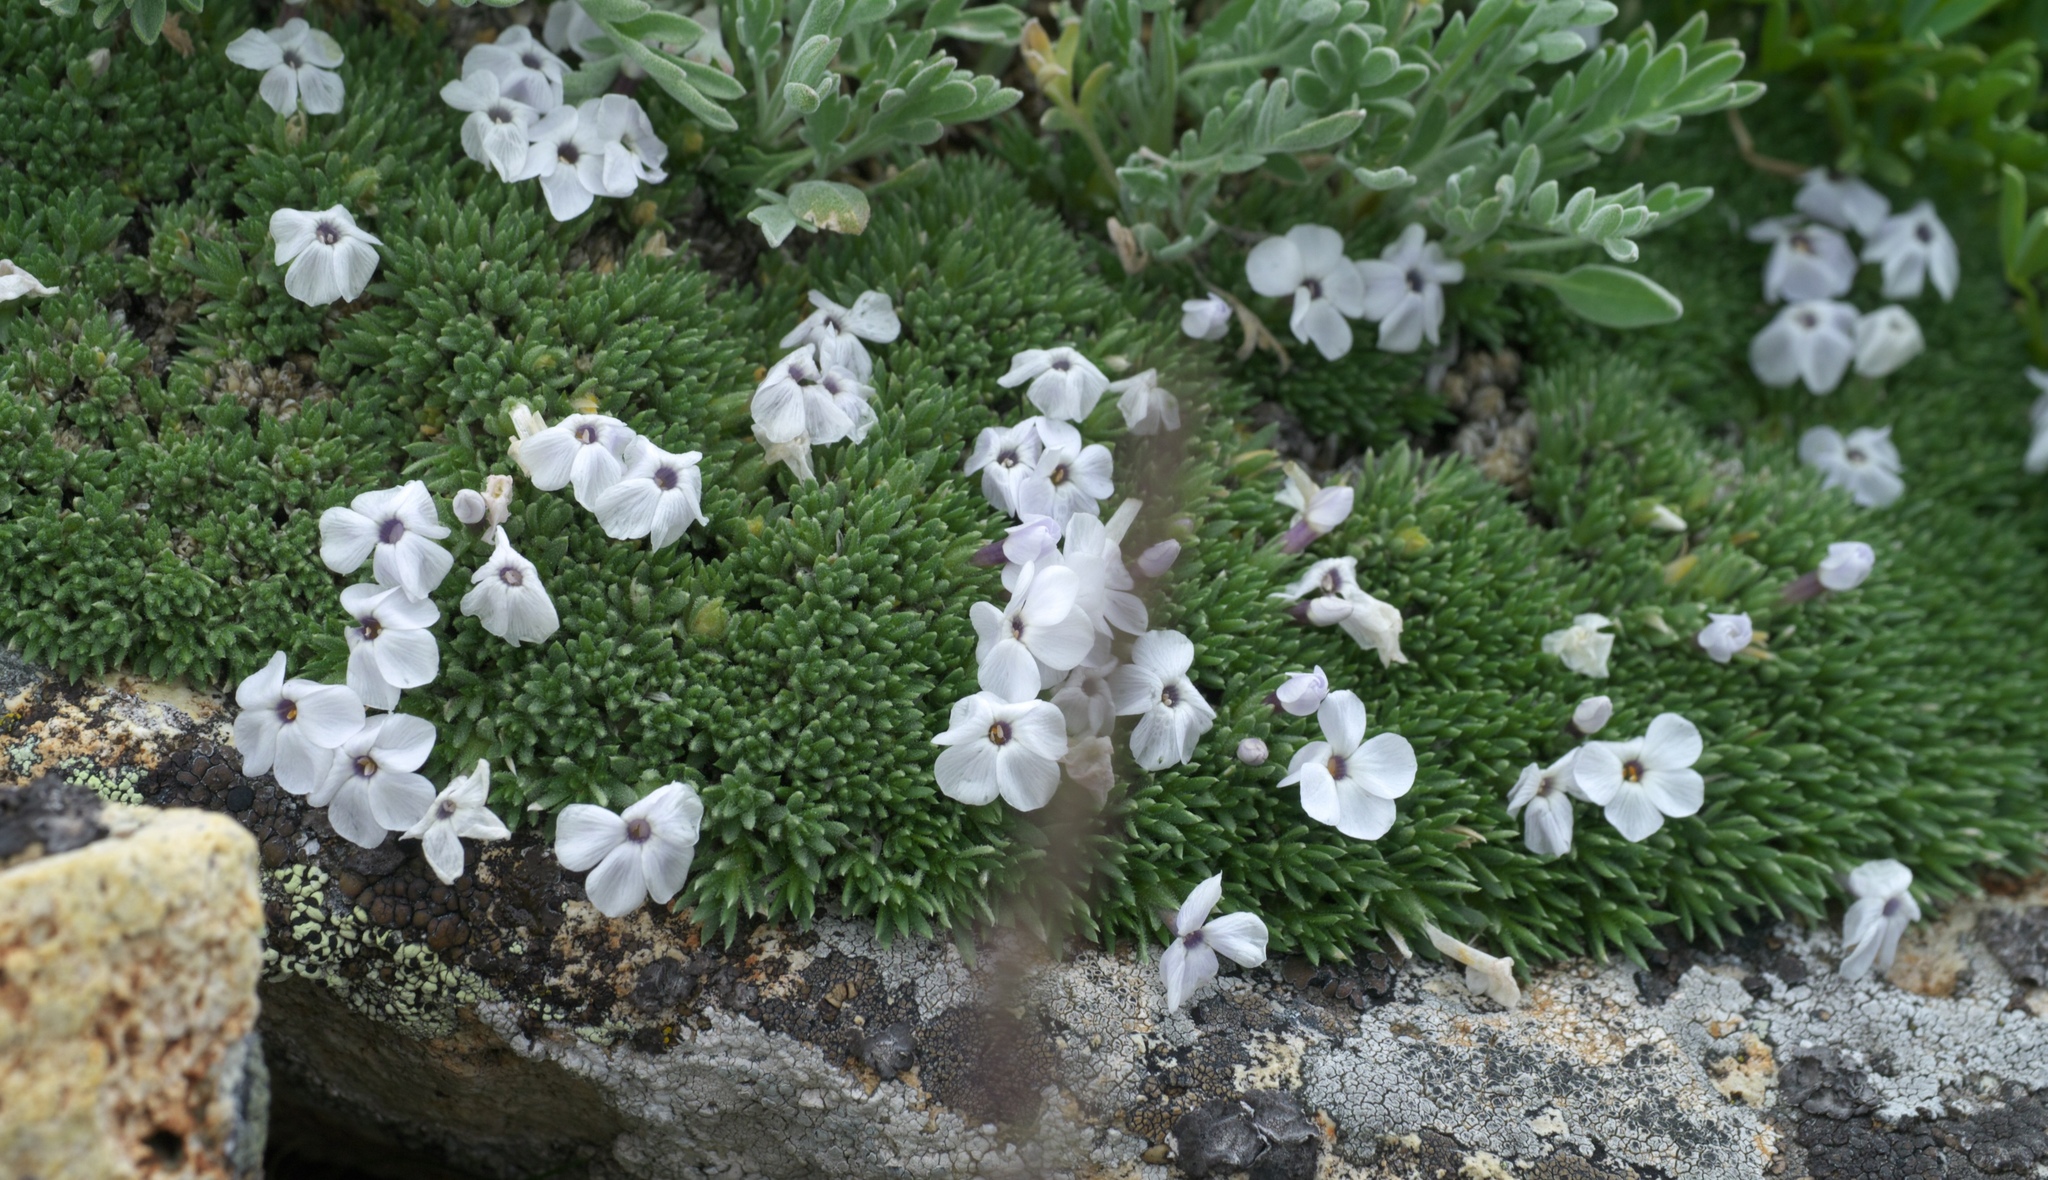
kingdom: Plantae
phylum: Tracheophyta
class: Magnoliopsida
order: Ericales
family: Polemoniaceae
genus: Phlox
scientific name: Phlox condensata
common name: Compact phlox
